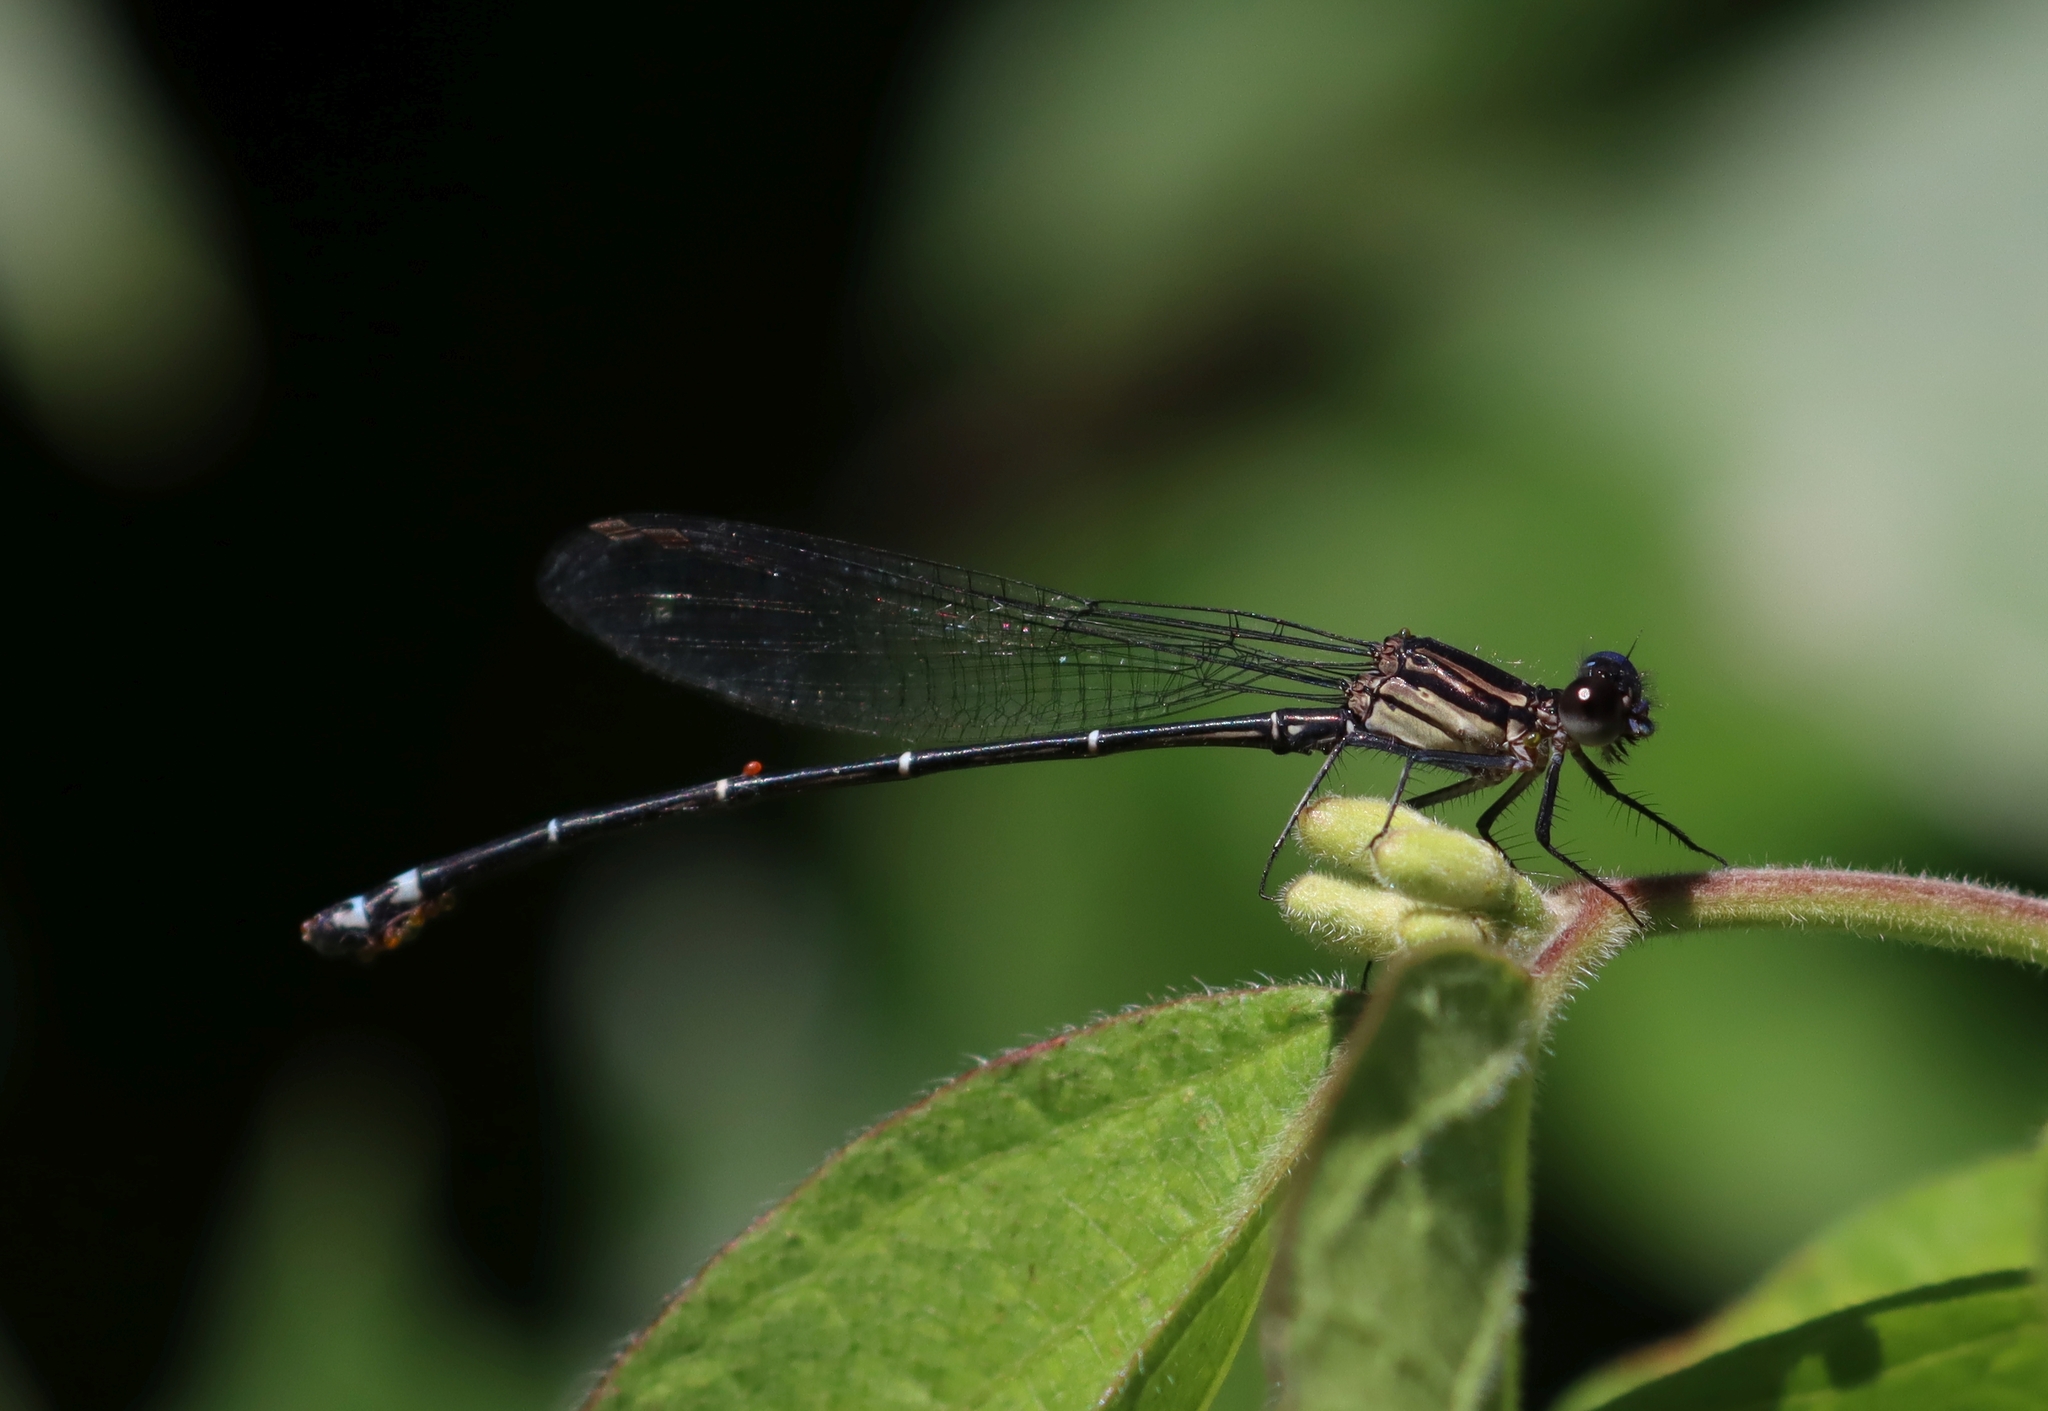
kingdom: Animalia
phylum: Arthropoda
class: Insecta
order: Odonata
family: Coenagrionidae
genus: Argia
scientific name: Argia translata
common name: Dusky dancer
